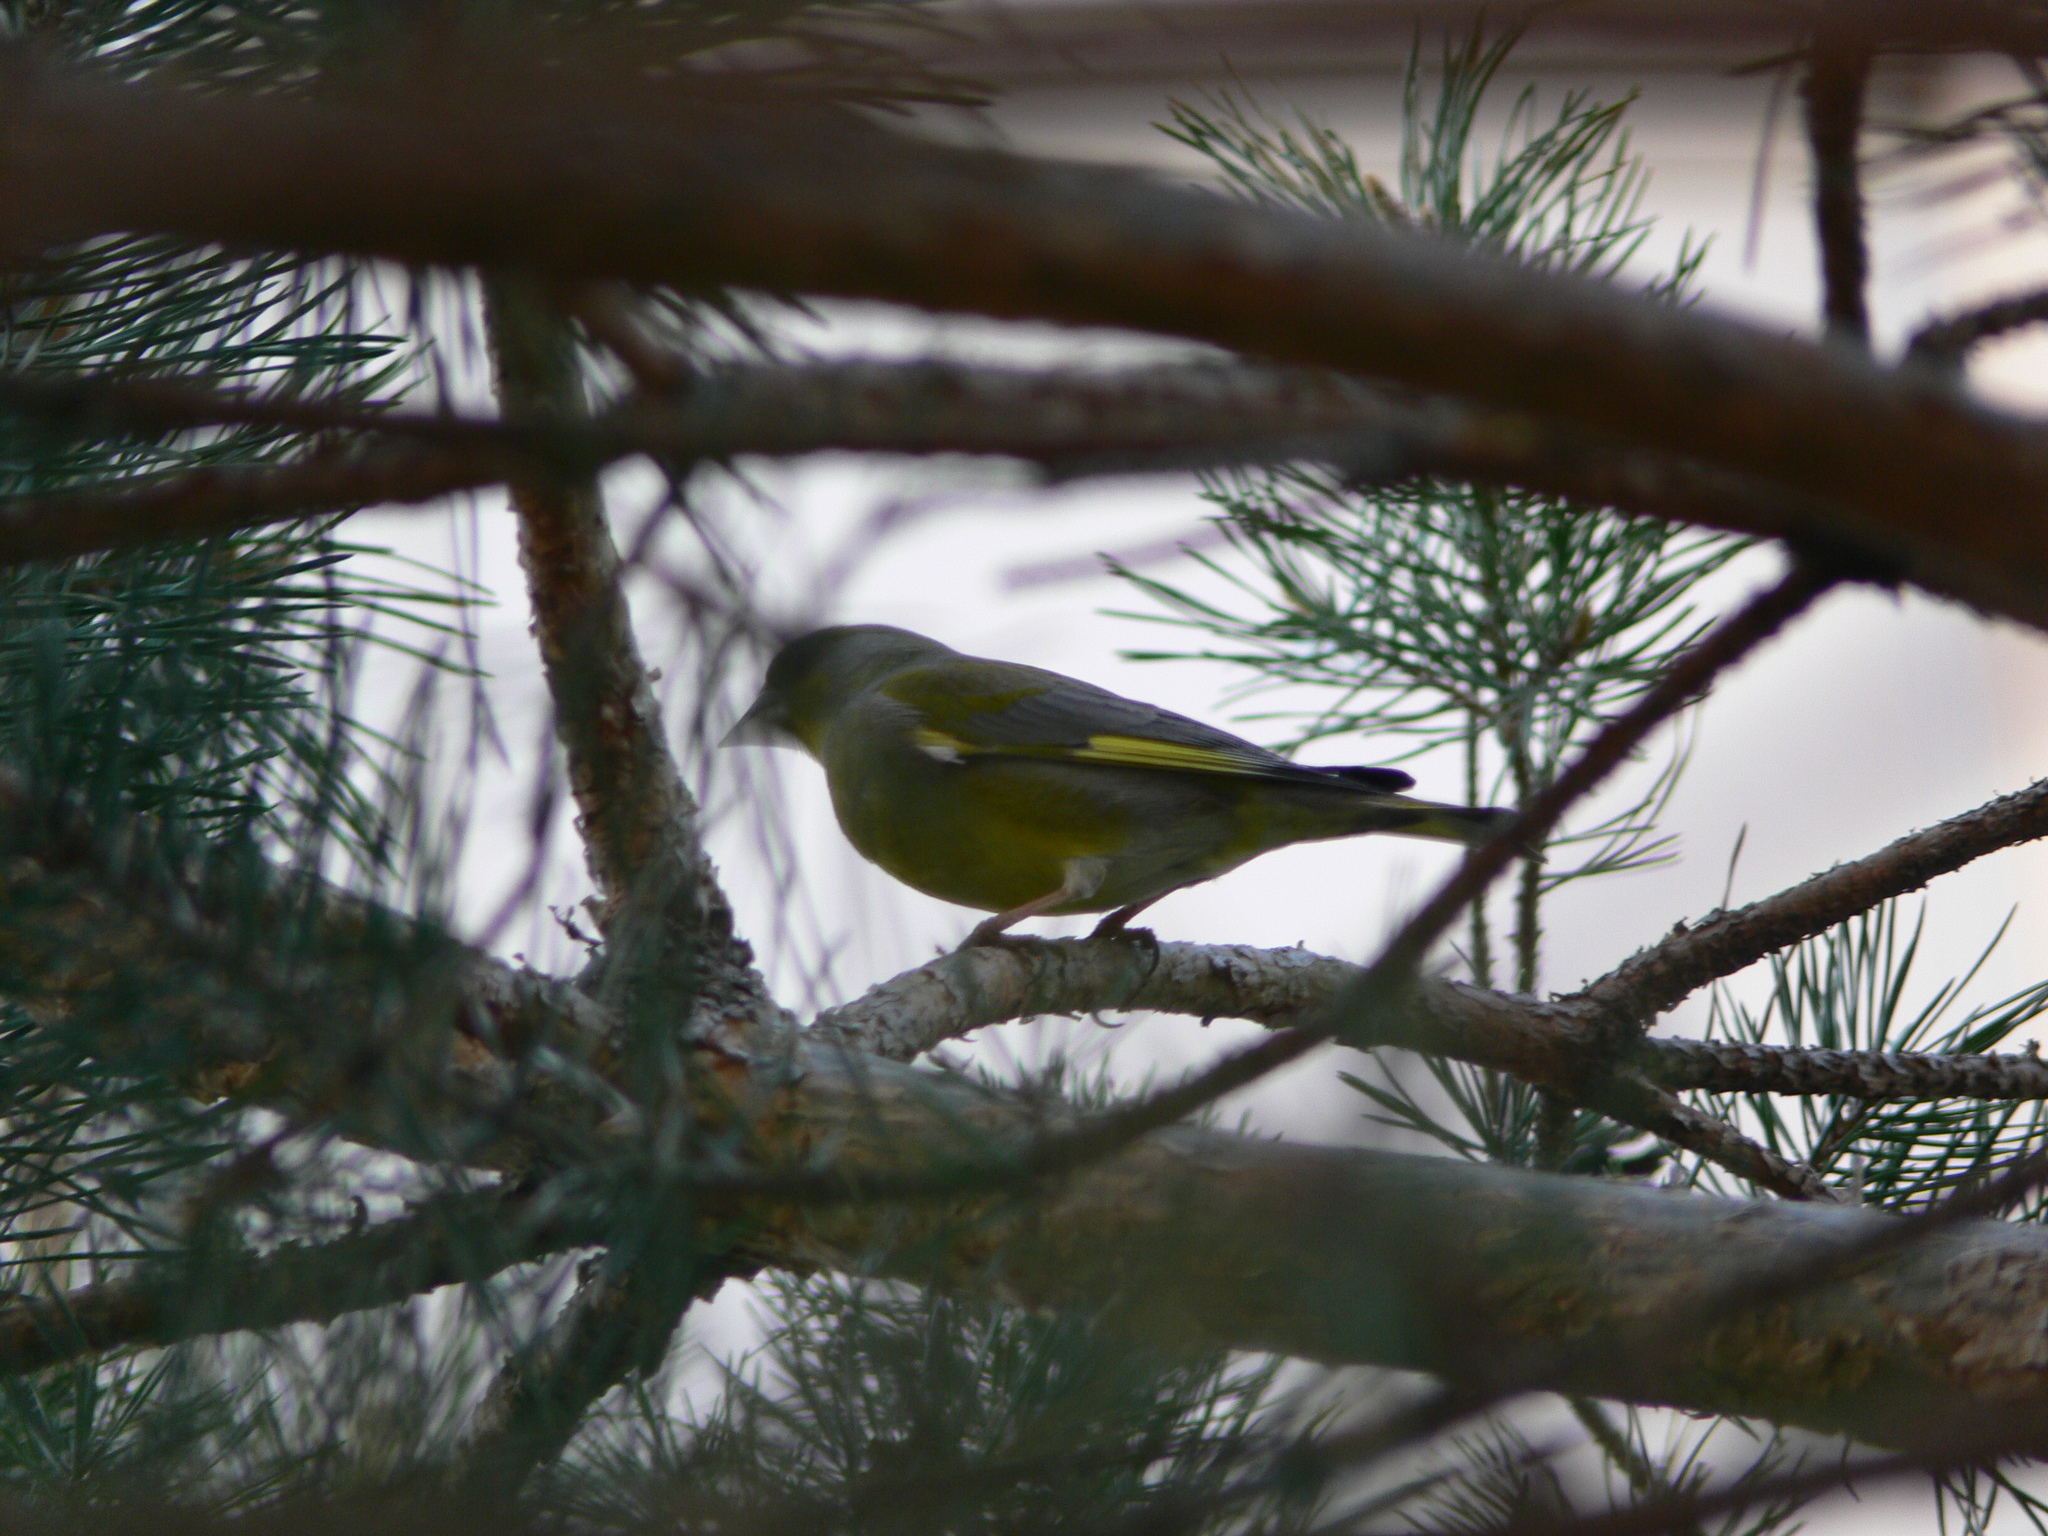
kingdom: Plantae
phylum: Tracheophyta
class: Liliopsida
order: Poales
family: Poaceae
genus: Chloris
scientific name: Chloris chloris
